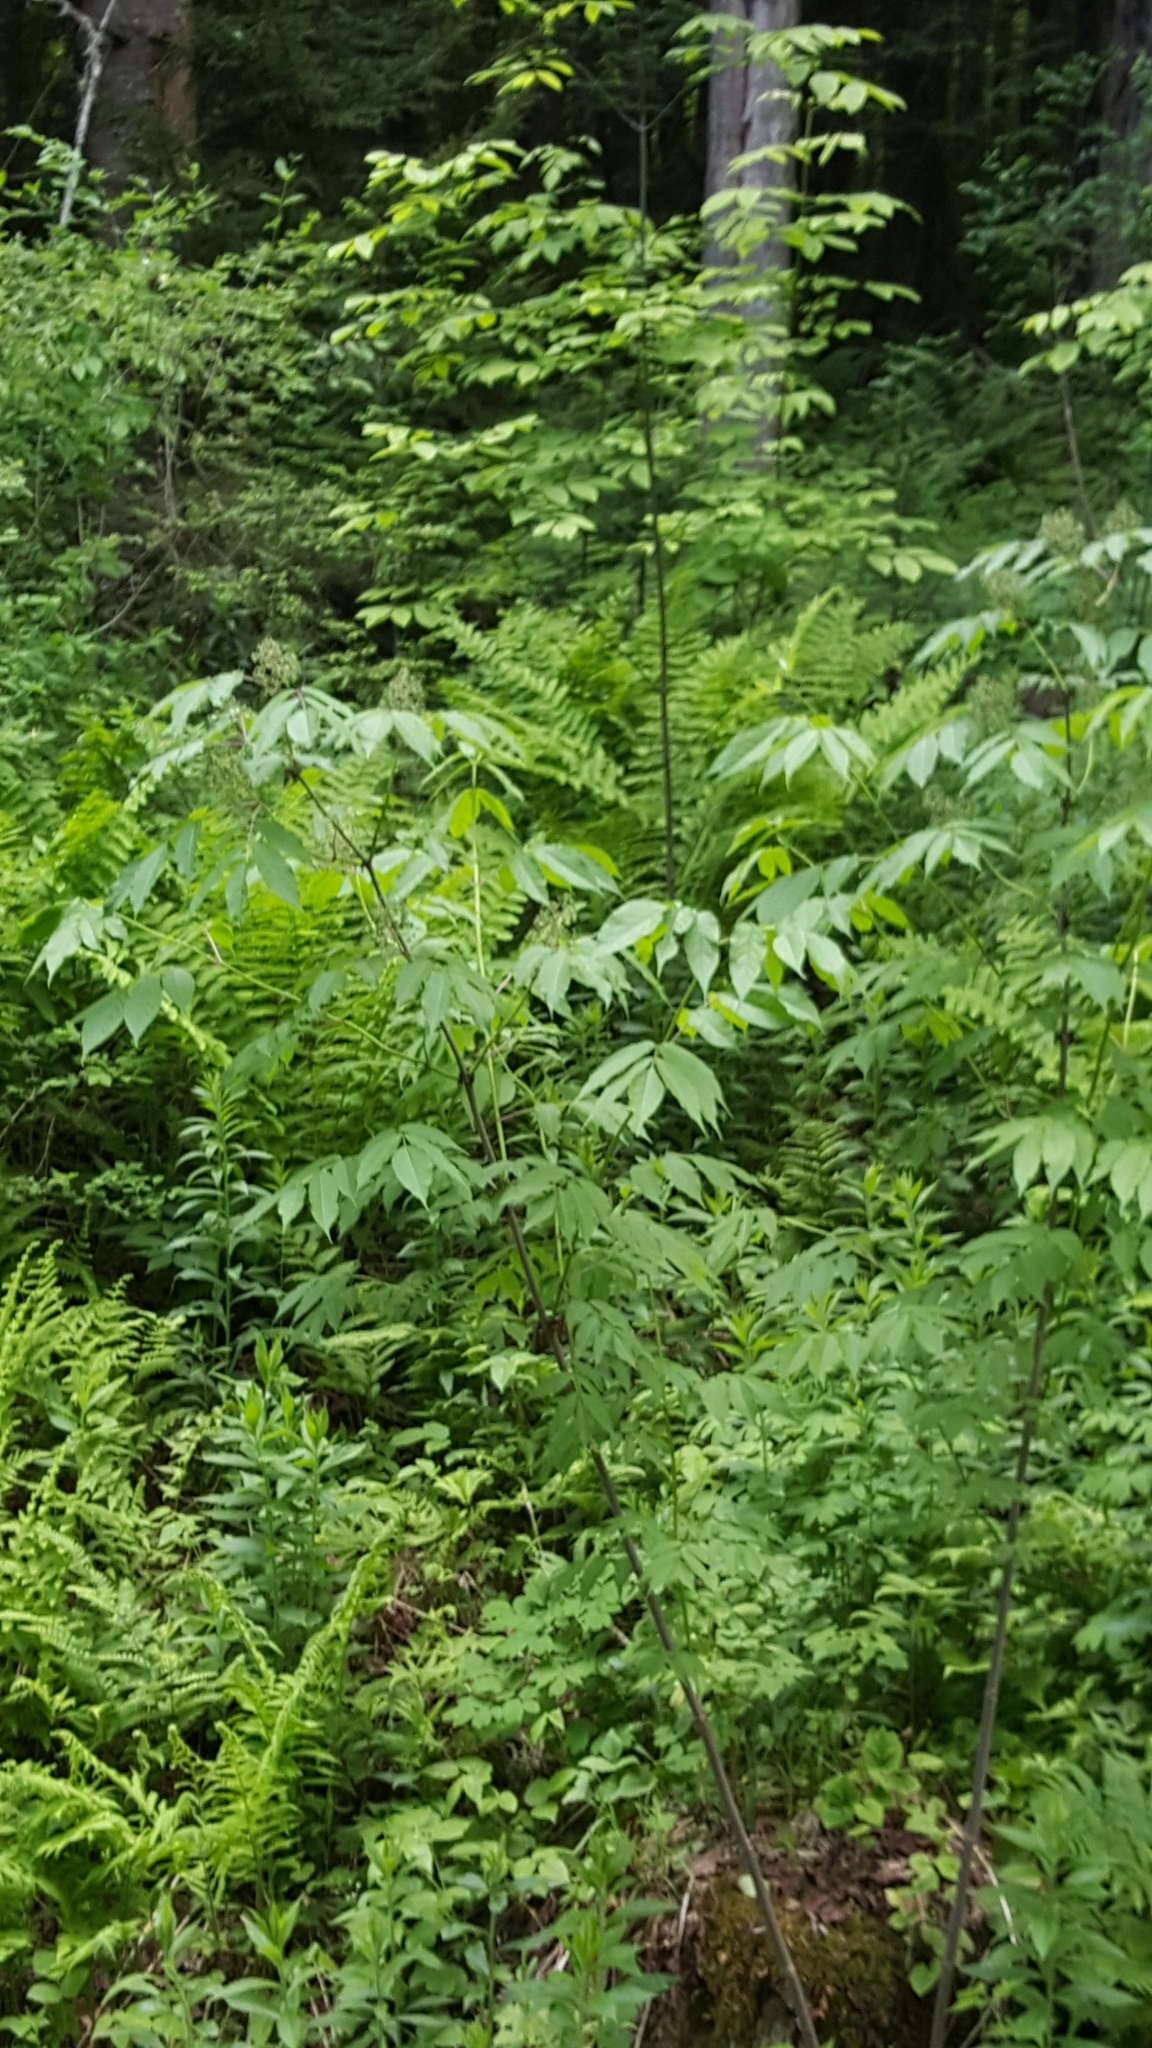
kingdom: Plantae
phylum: Tracheophyta
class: Magnoliopsida
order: Dipsacales
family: Viburnaceae
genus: Sambucus
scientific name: Sambucus racemosa
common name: Red-berried elder
